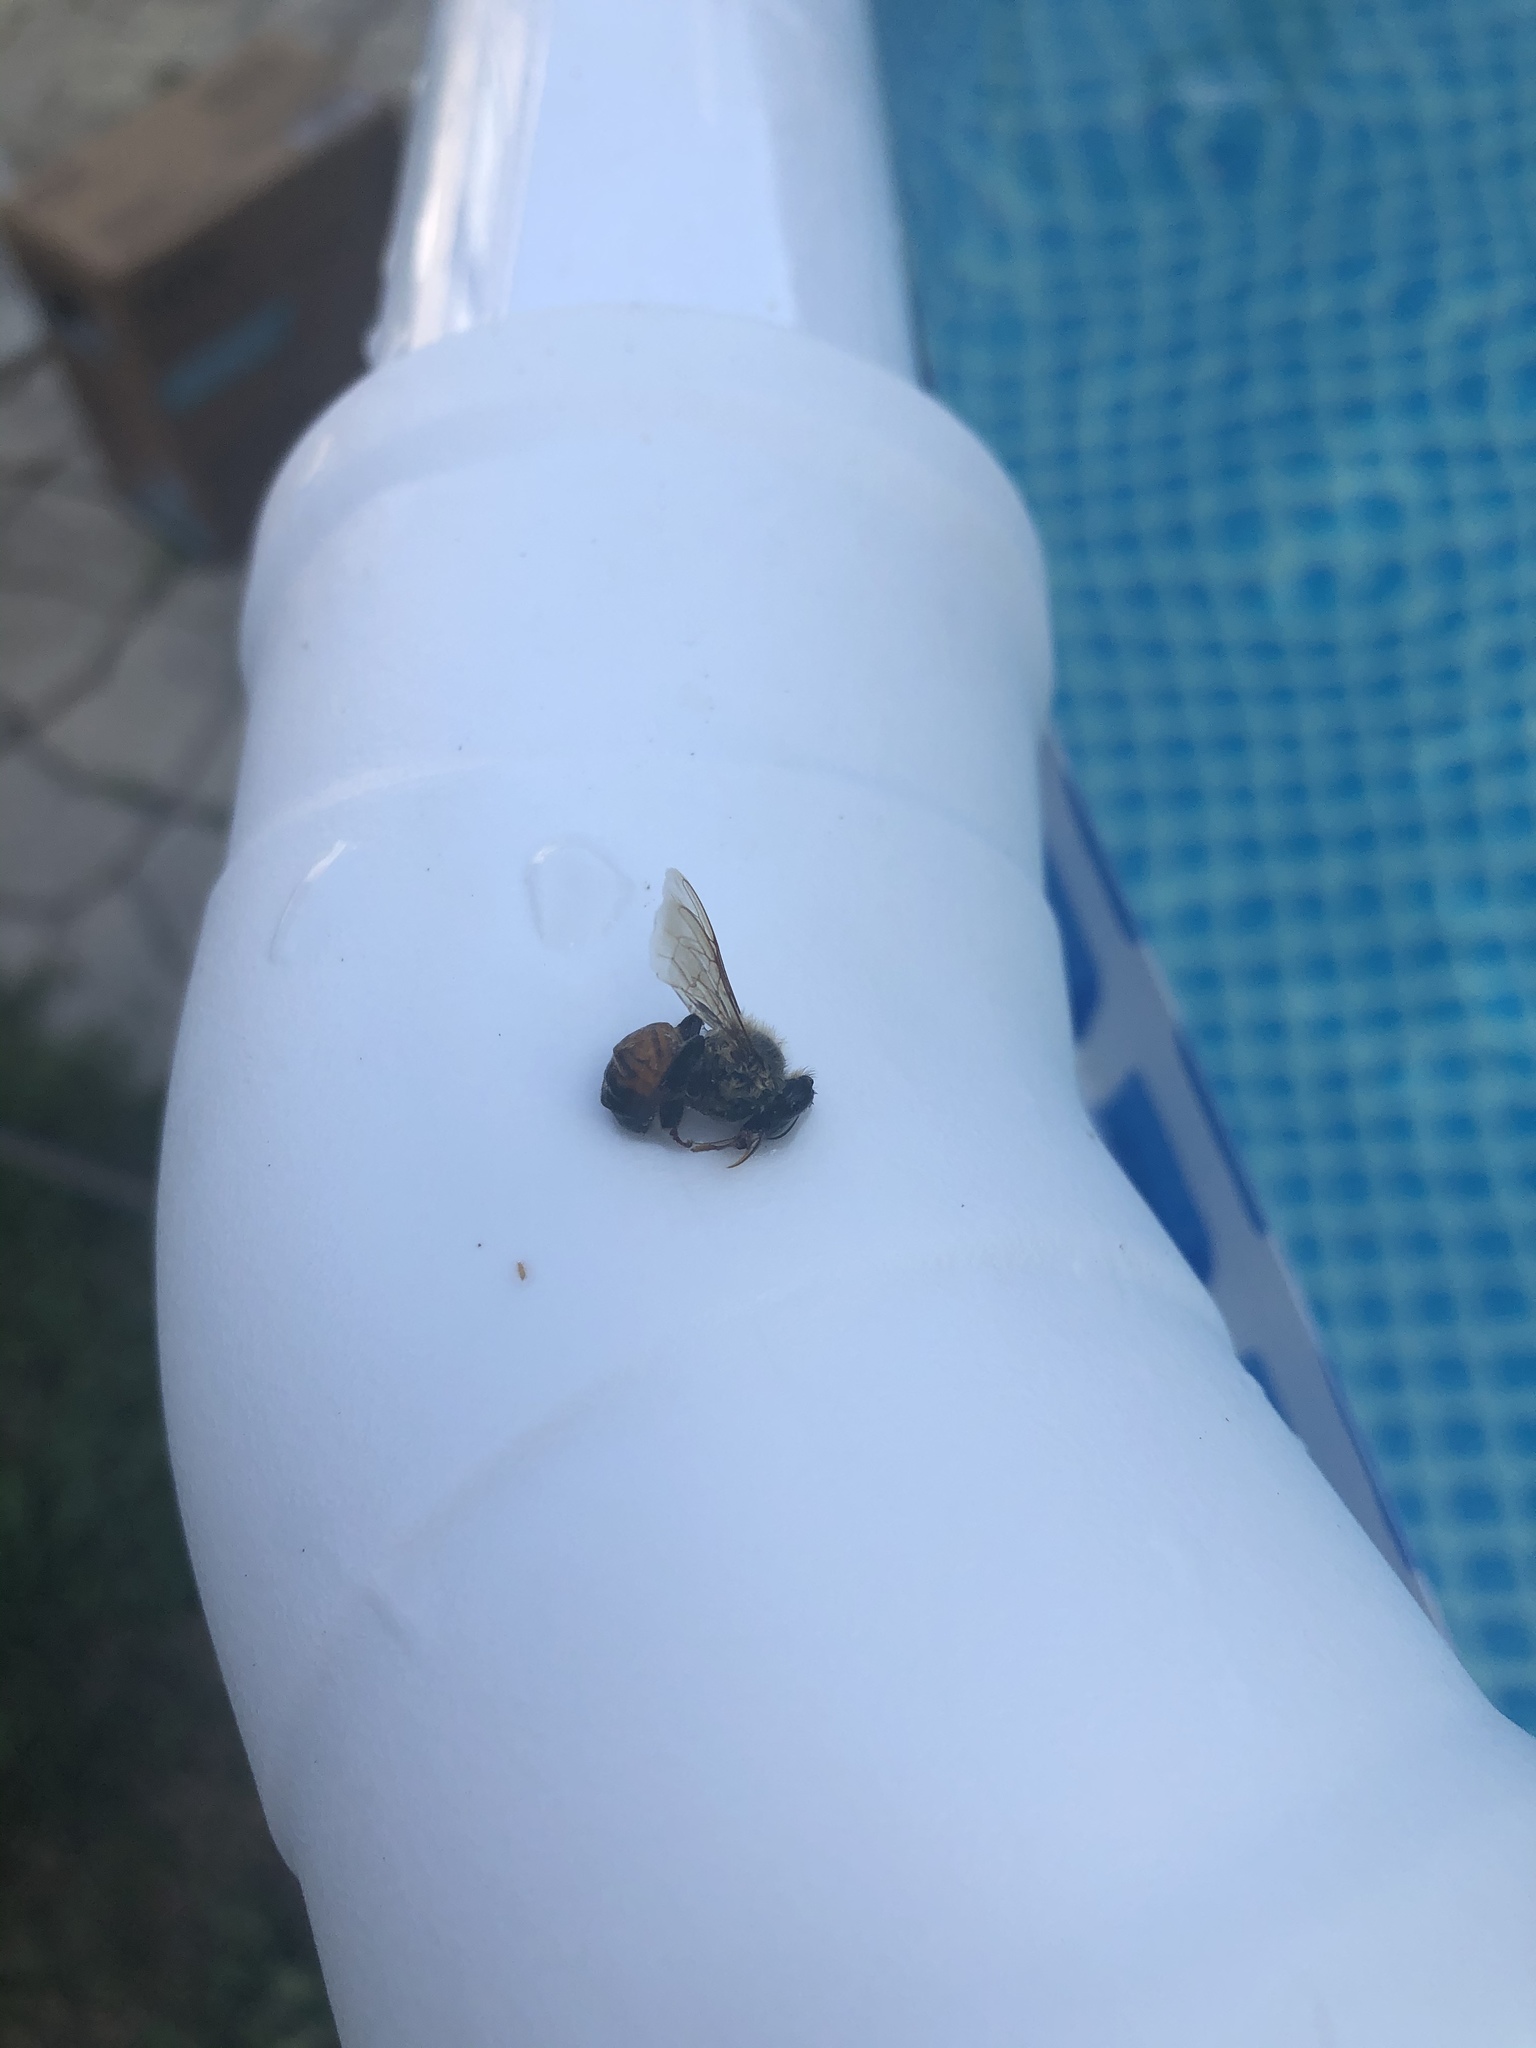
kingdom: Animalia
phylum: Arthropoda
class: Insecta
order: Hymenoptera
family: Apidae
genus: Apis
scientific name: Apis mellifera
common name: Honey bee
